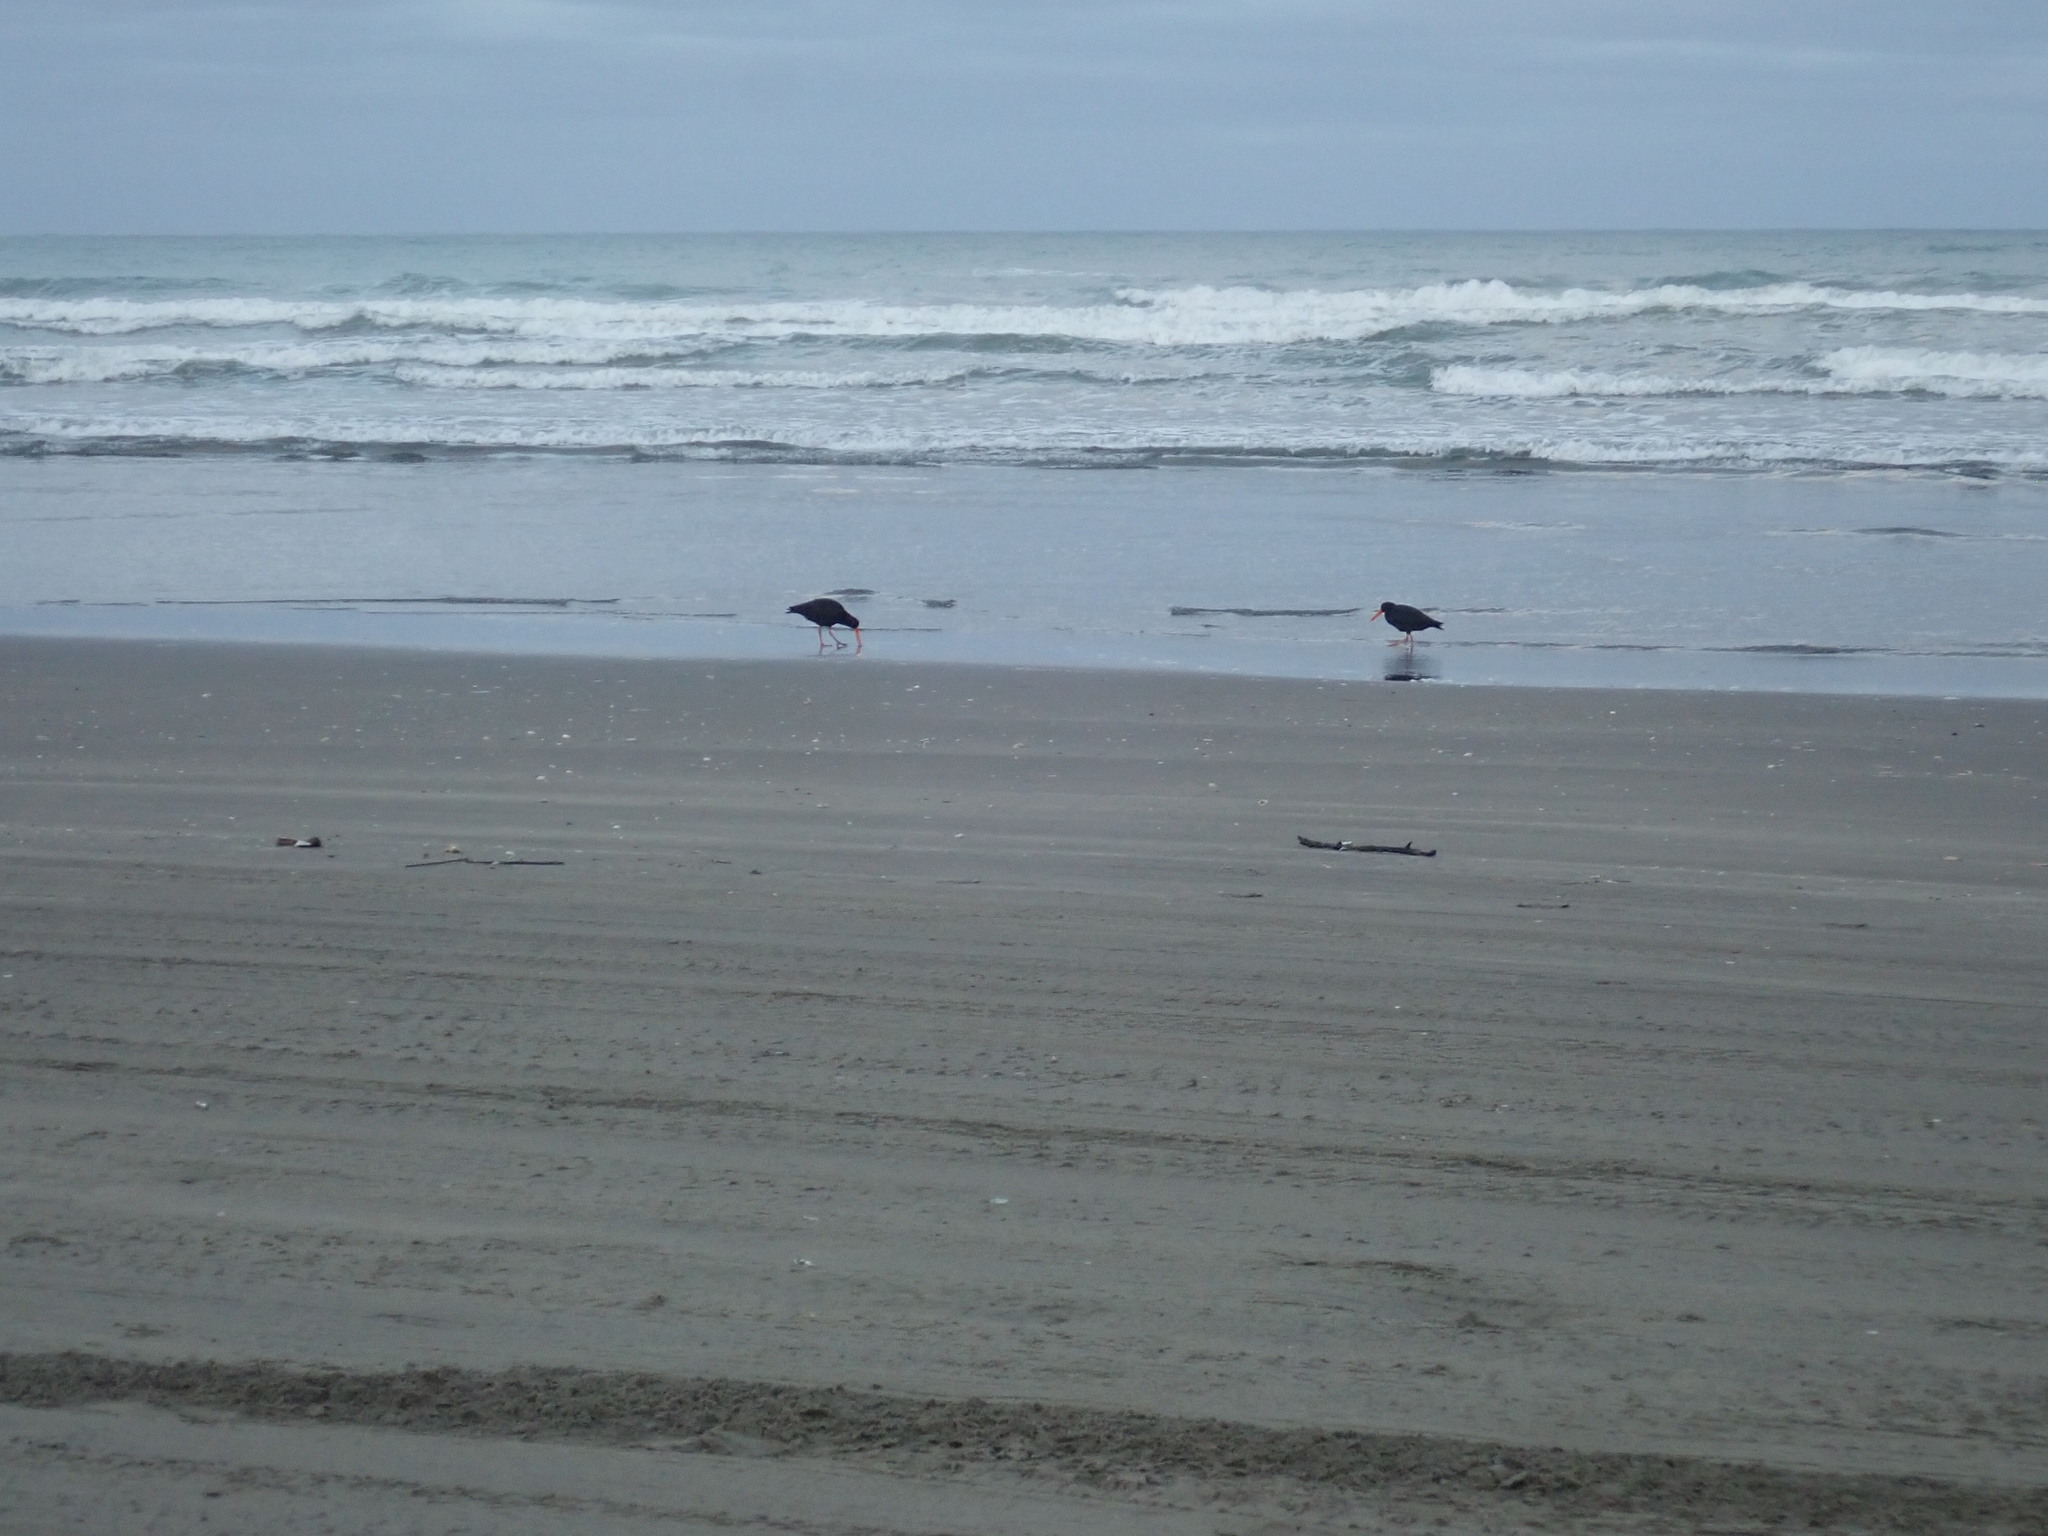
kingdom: Animalia
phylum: Chordata
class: Aves
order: Charadriiformes
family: Haematopodidae
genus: Haematopus
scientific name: Haematopus unicolor
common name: Variable oystercatcher
